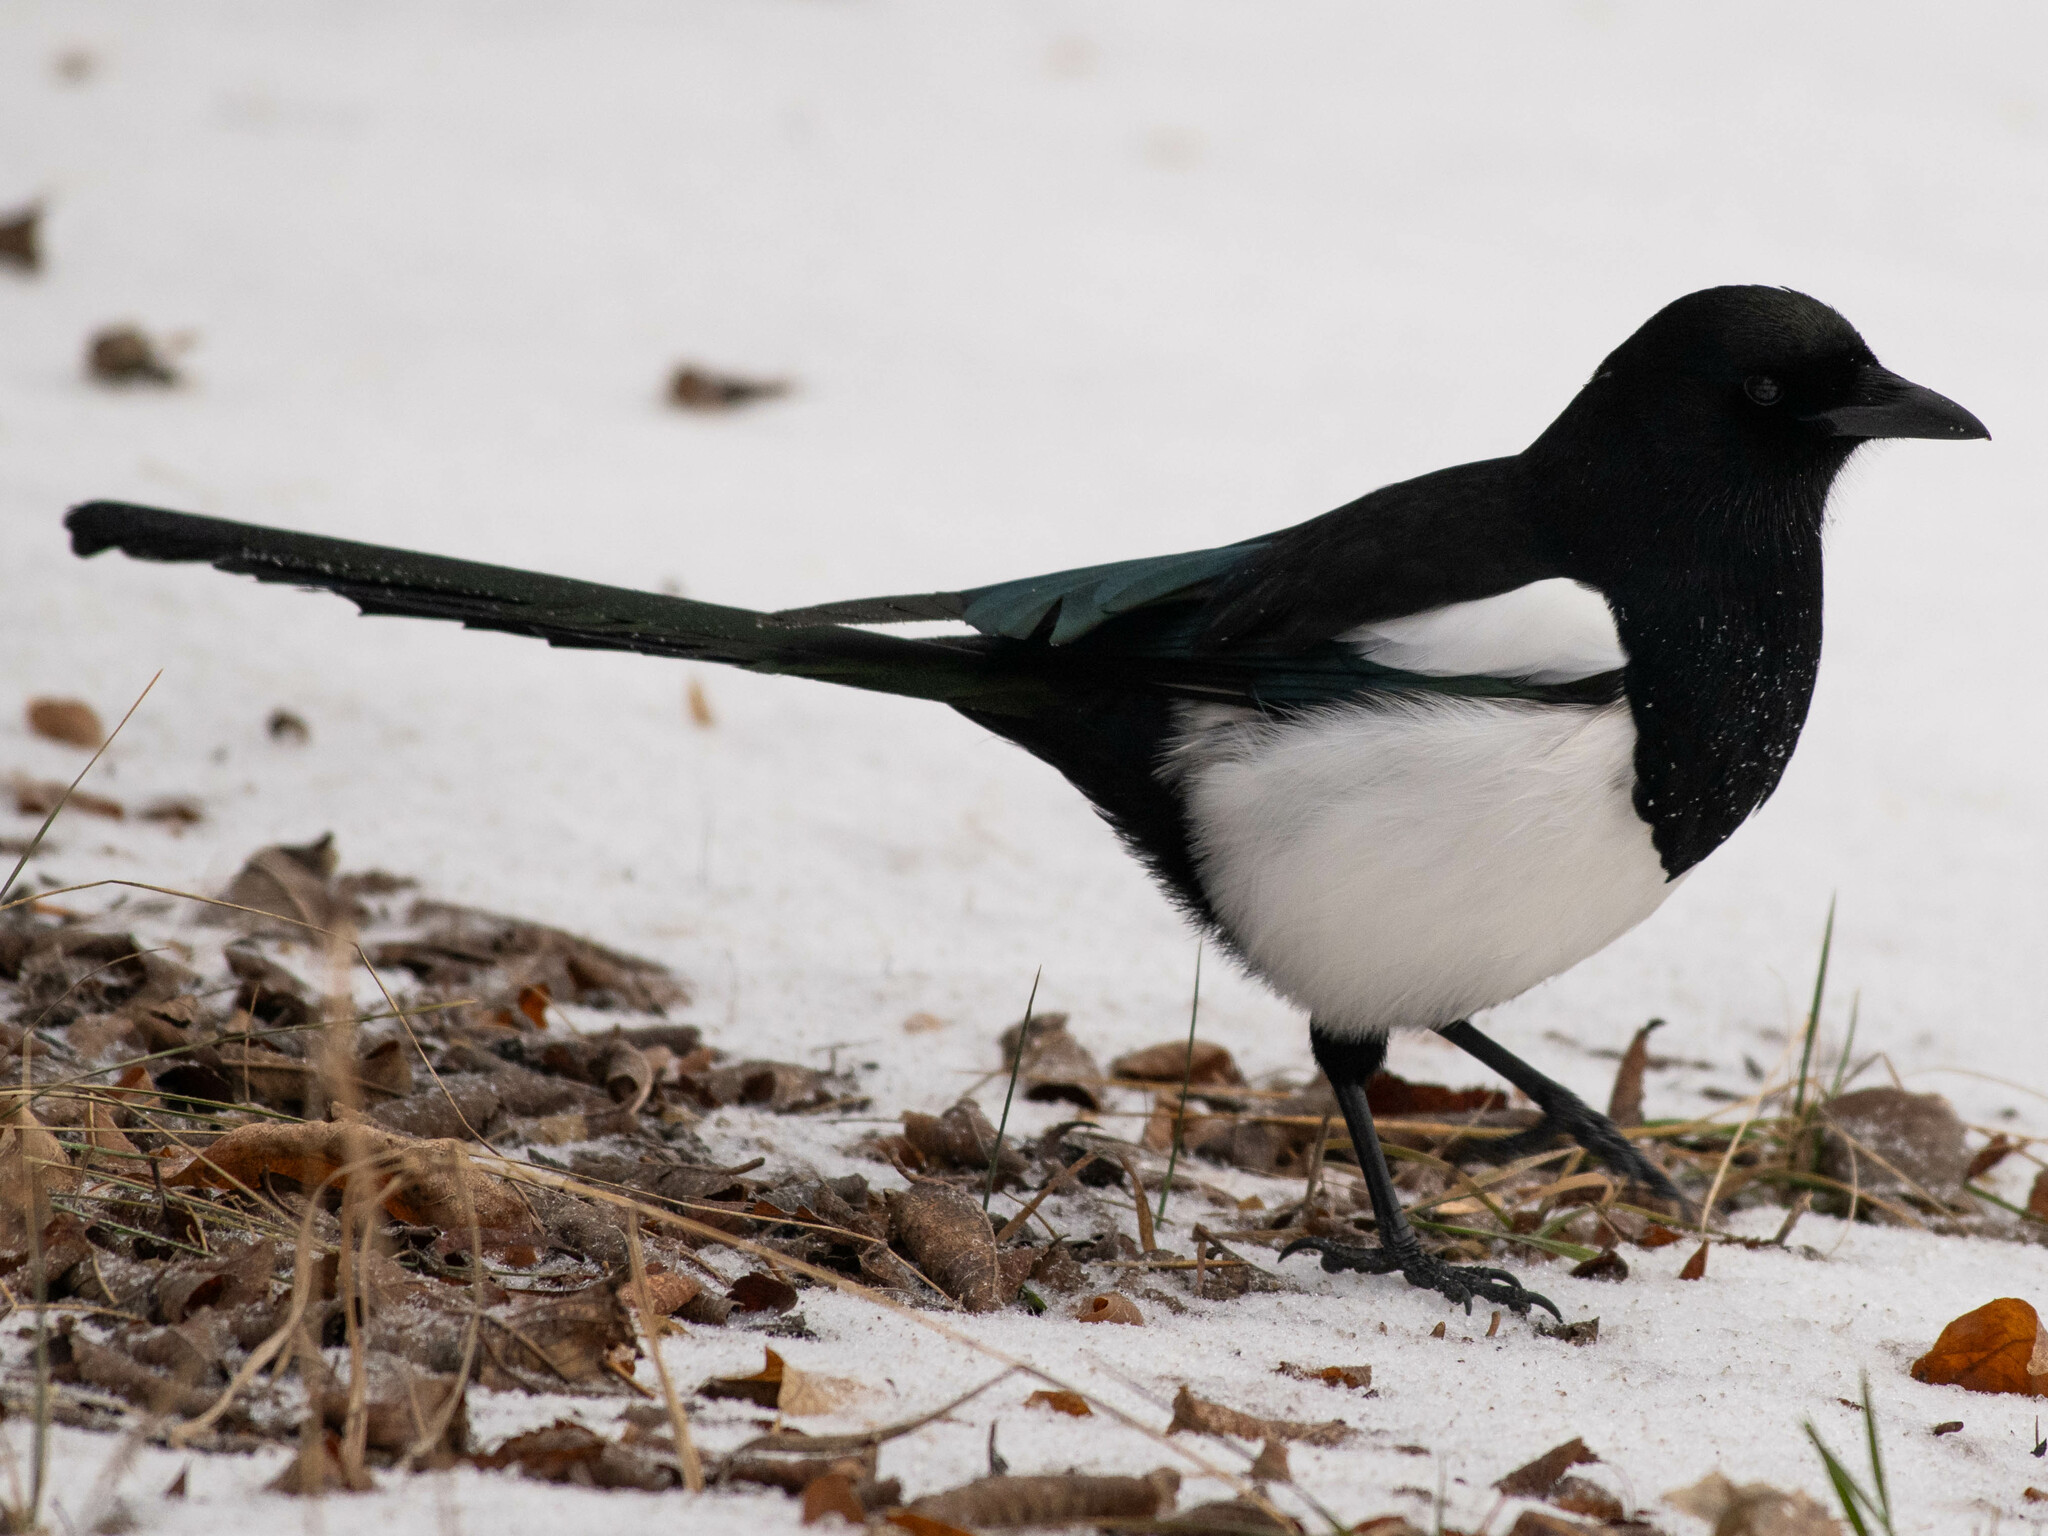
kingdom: Animalia
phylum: Chordata
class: Aves
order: Passeriformes
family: Corvidae
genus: Pica
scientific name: Pica hudsonia
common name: Black-billed magpie
